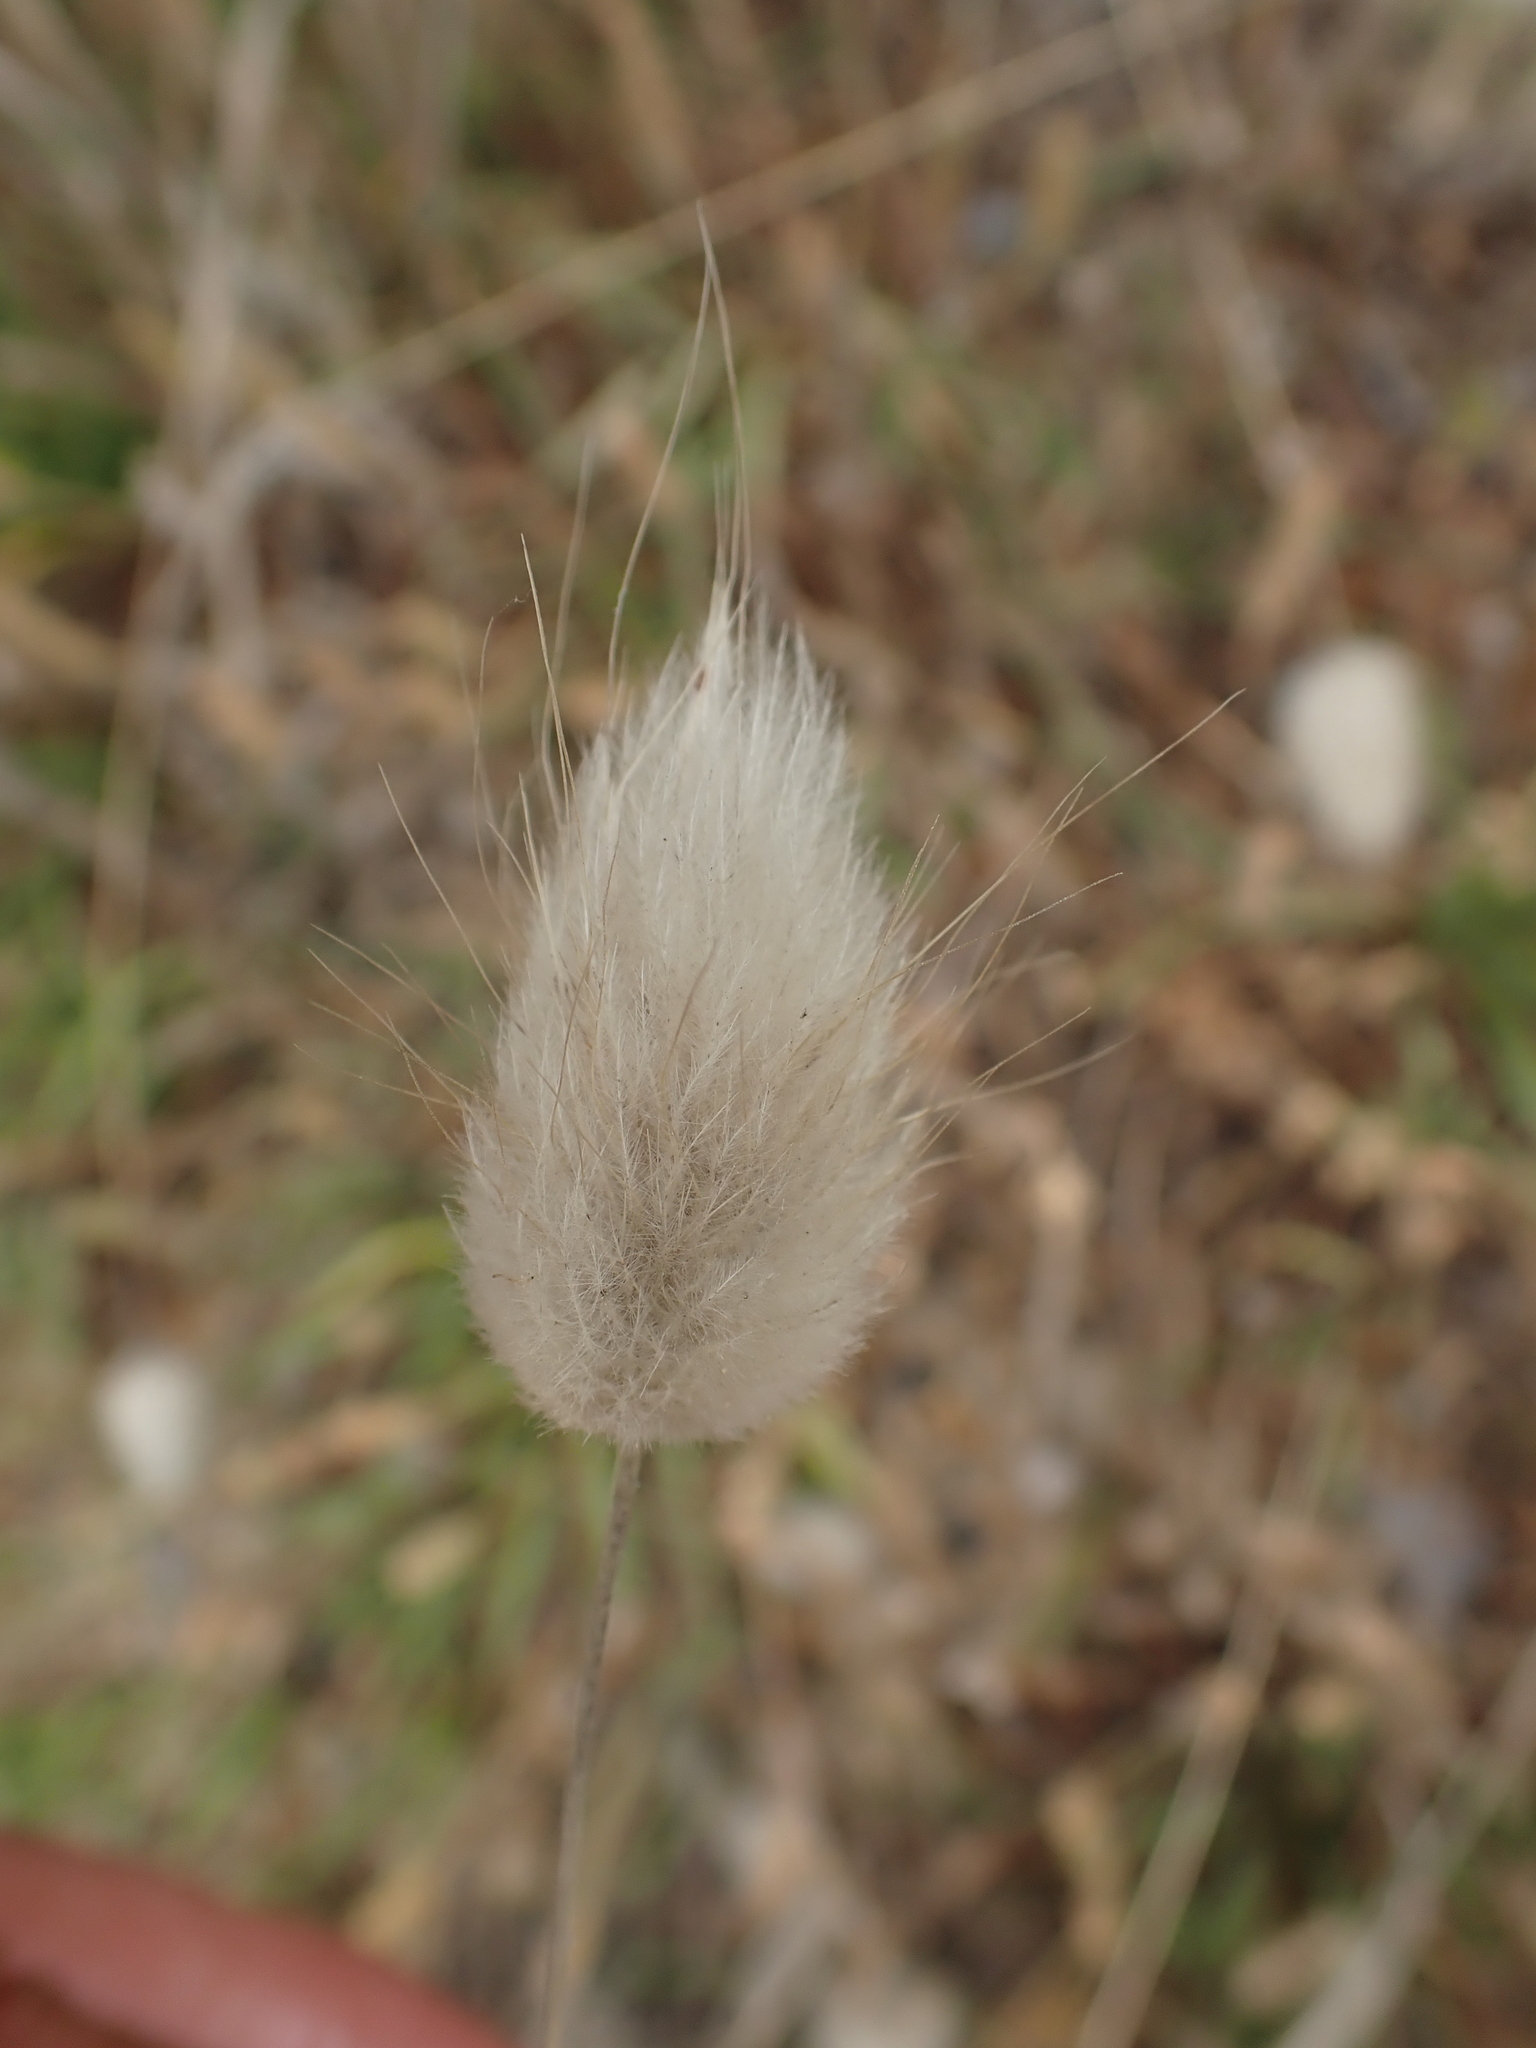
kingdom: Plantae
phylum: Tracheophyta
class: Liliopsida
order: Poales
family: Poaceae
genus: Lagurus
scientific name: Lagurus ovatus
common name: Hare's-tail
